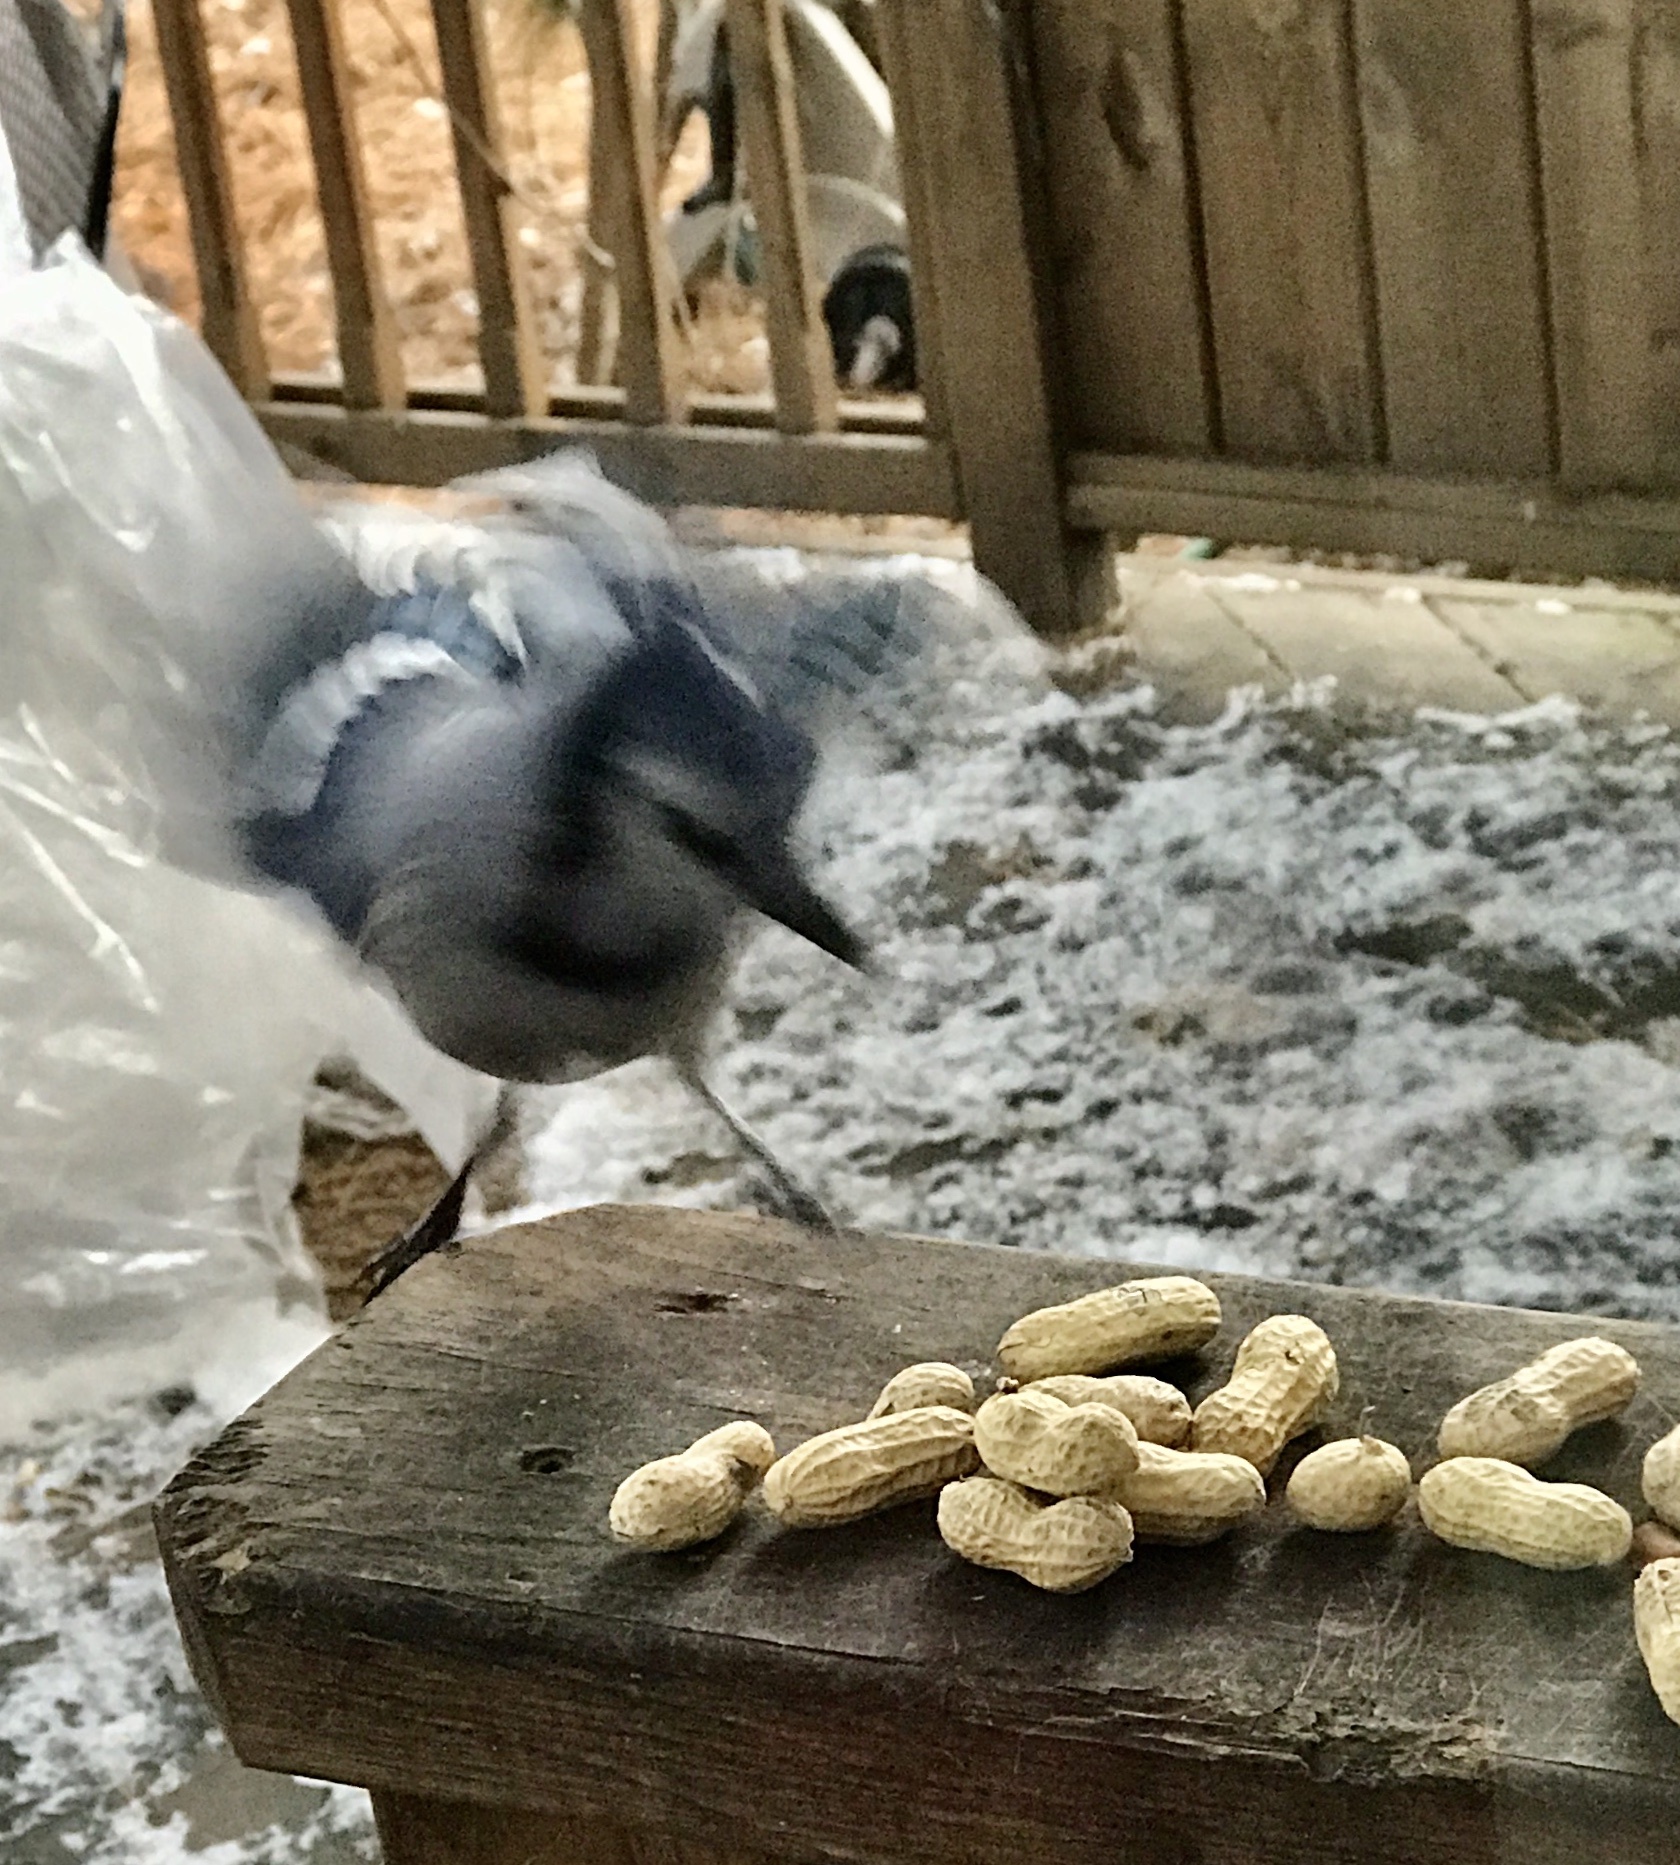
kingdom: Animalia
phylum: Chordata
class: Aves
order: Passeriformes
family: Corvidae
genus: Cyanocitta
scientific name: Cyanocitta cristata
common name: Blue jay
